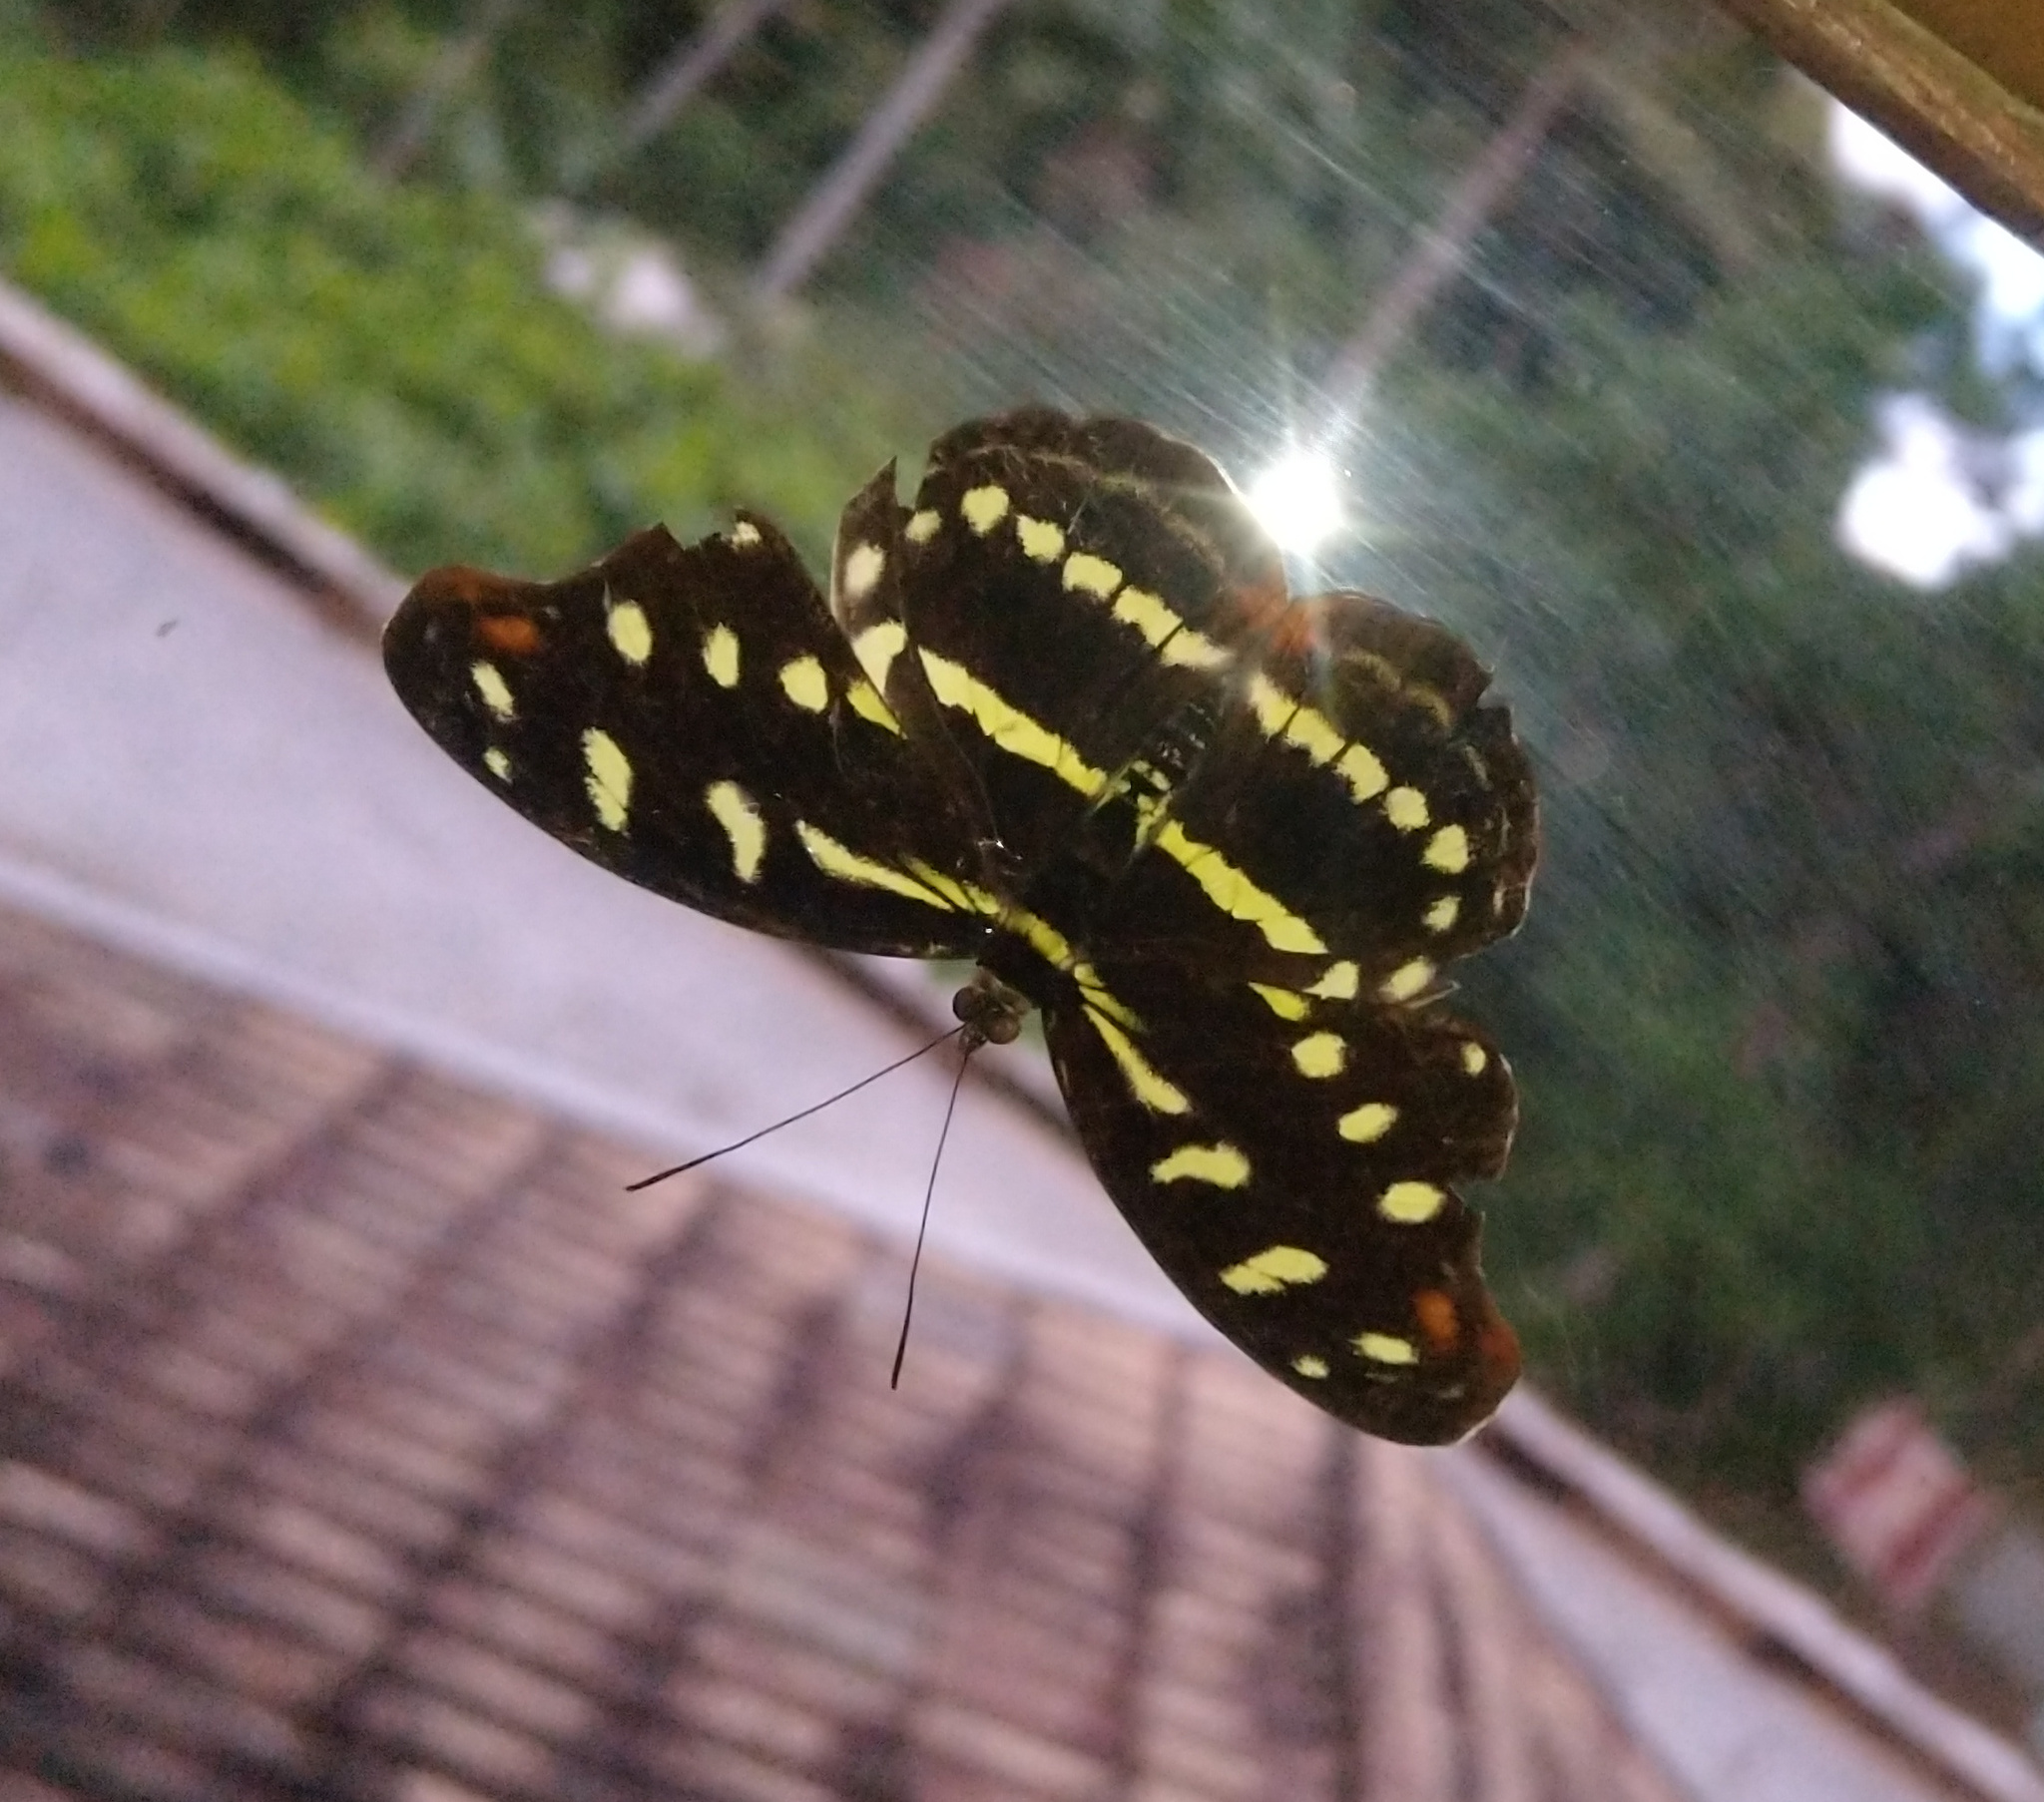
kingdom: Animalia
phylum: Arthropoda
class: Insecta
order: Lepidoptera
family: Nymphalidae
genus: Catonephele
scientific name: Catonephele acontius
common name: Unspotted firewing
